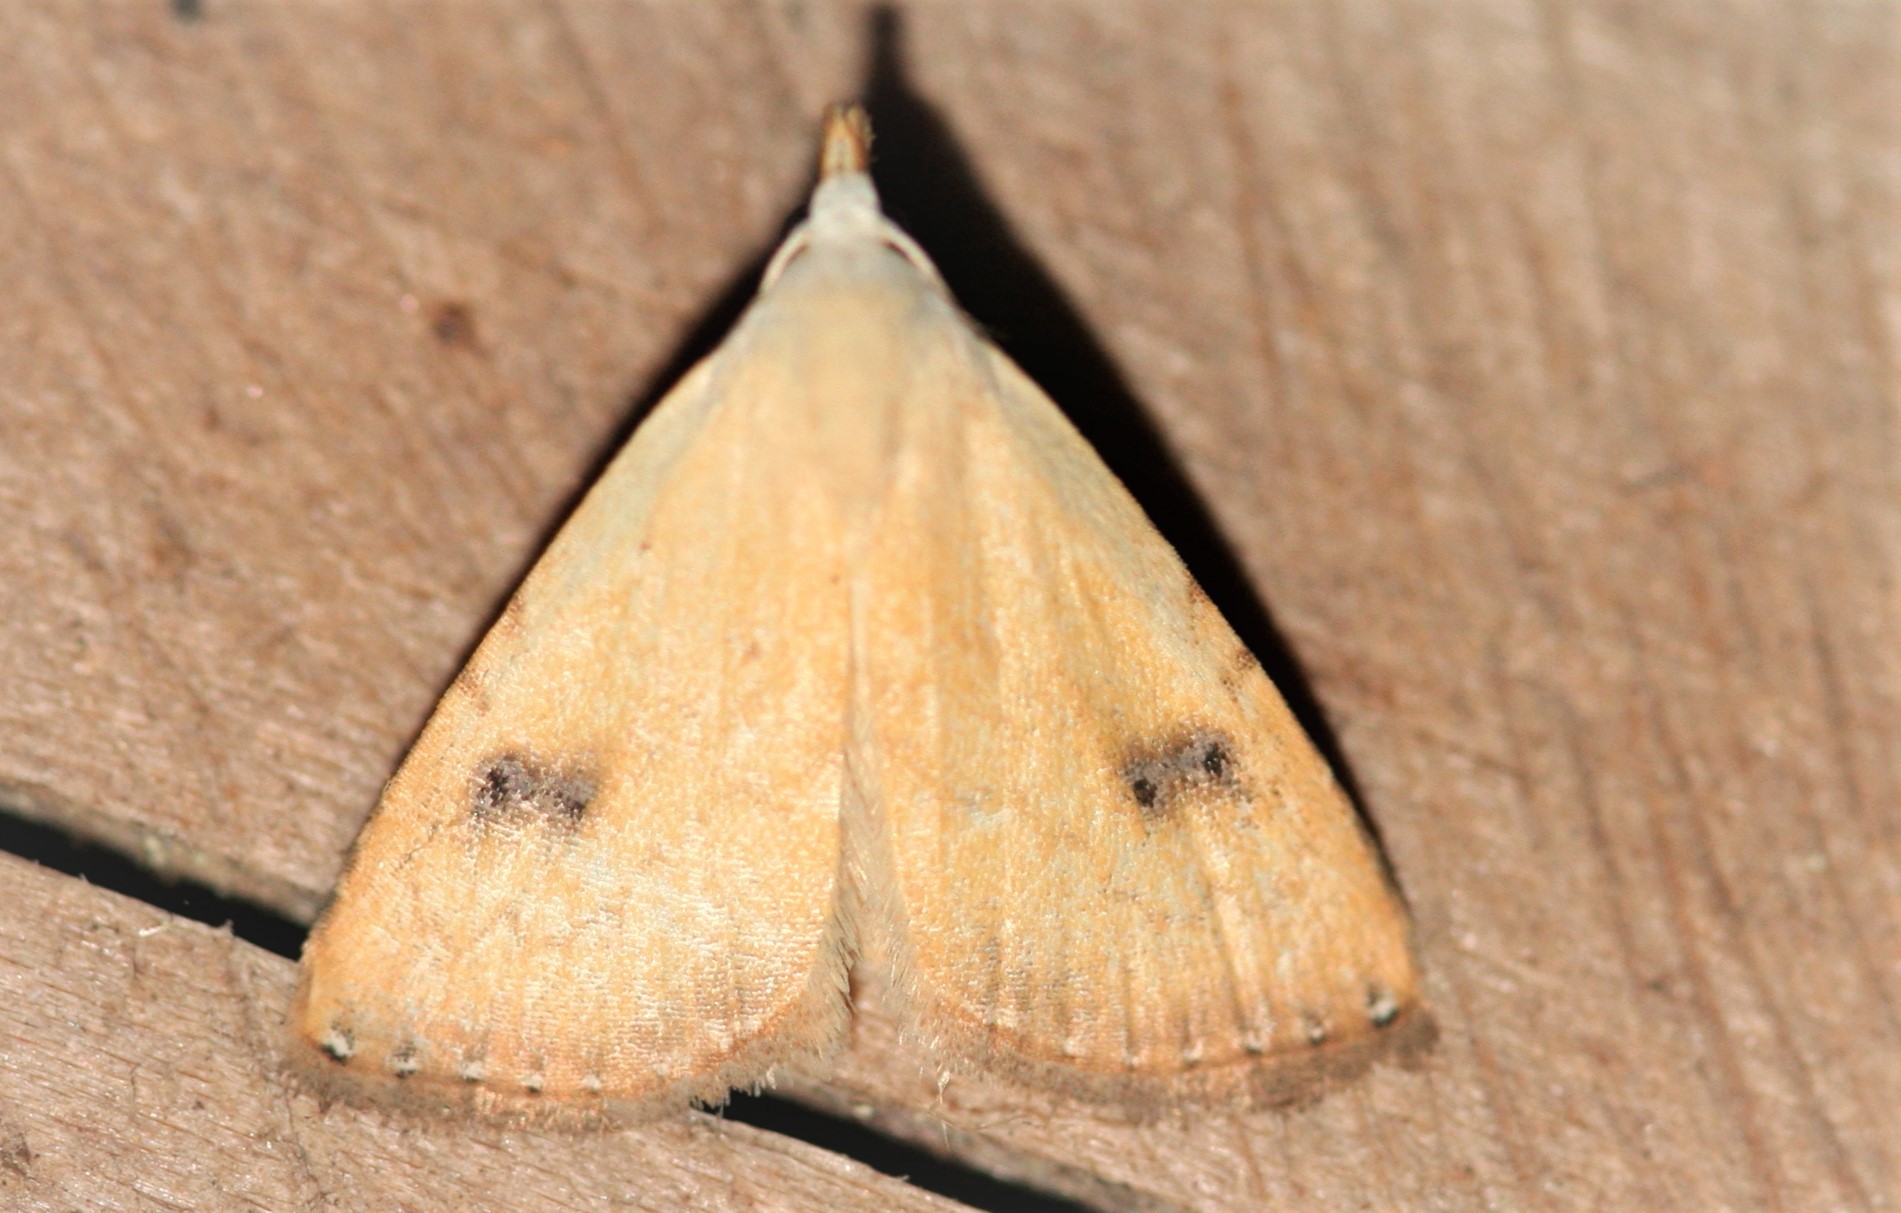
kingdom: Animalia
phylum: Arthropoda
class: Insecta
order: Lepidoptera
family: Erebidae
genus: Rivula
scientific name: Rivula sericealis
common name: Straw dot
